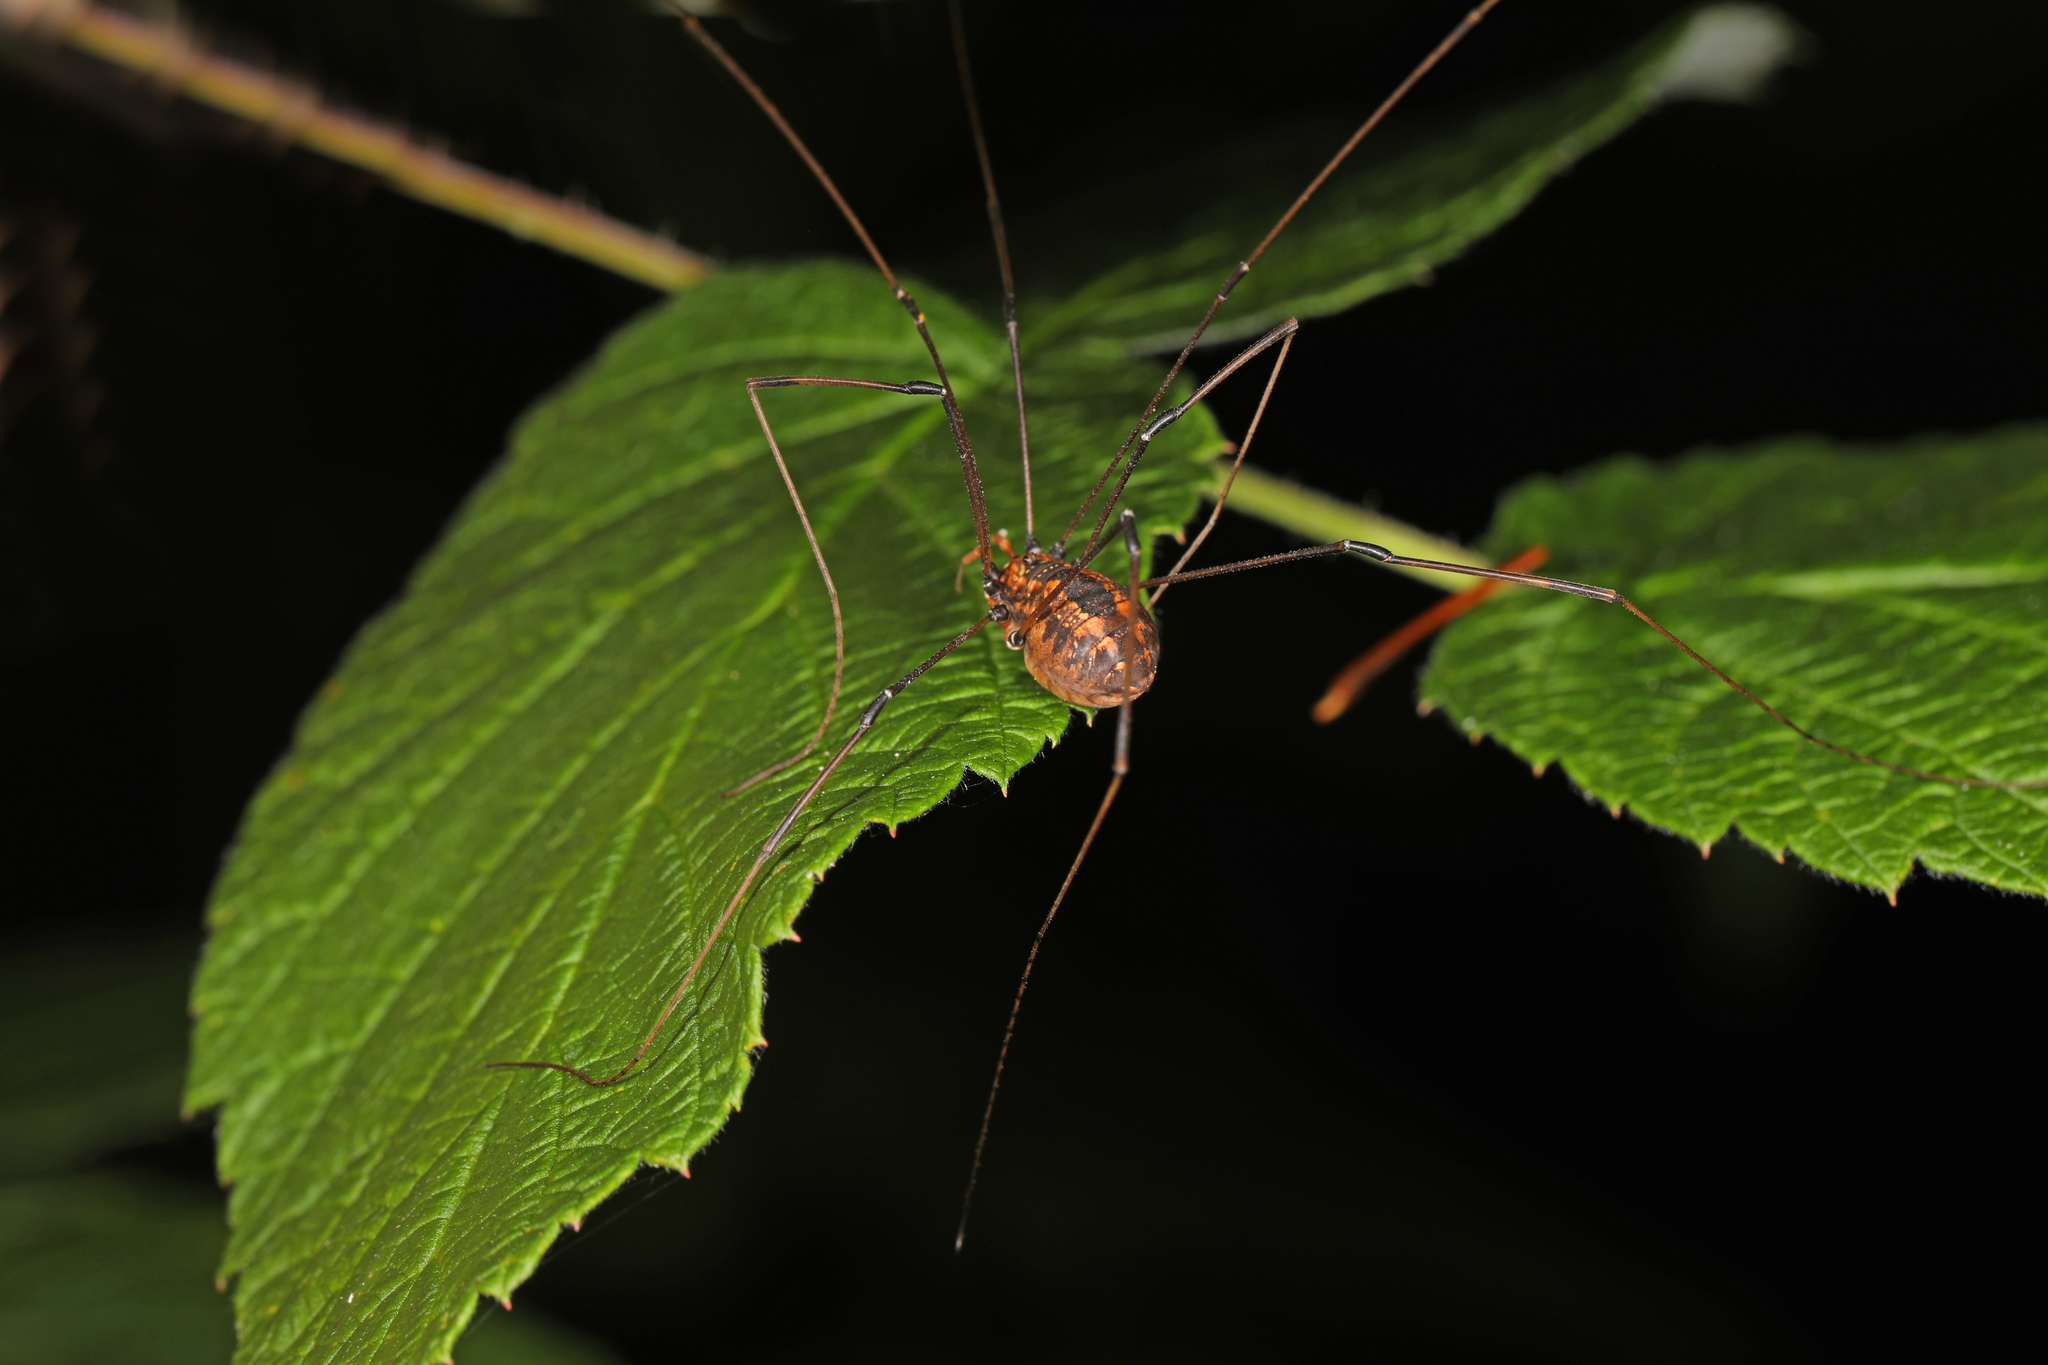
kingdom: Animalia
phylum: Arthropoda
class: Arachnida
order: Opiliones
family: Sclerosomatidae
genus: Leiobunum
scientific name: Leiobunum vittatum
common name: Eastern harvestman
